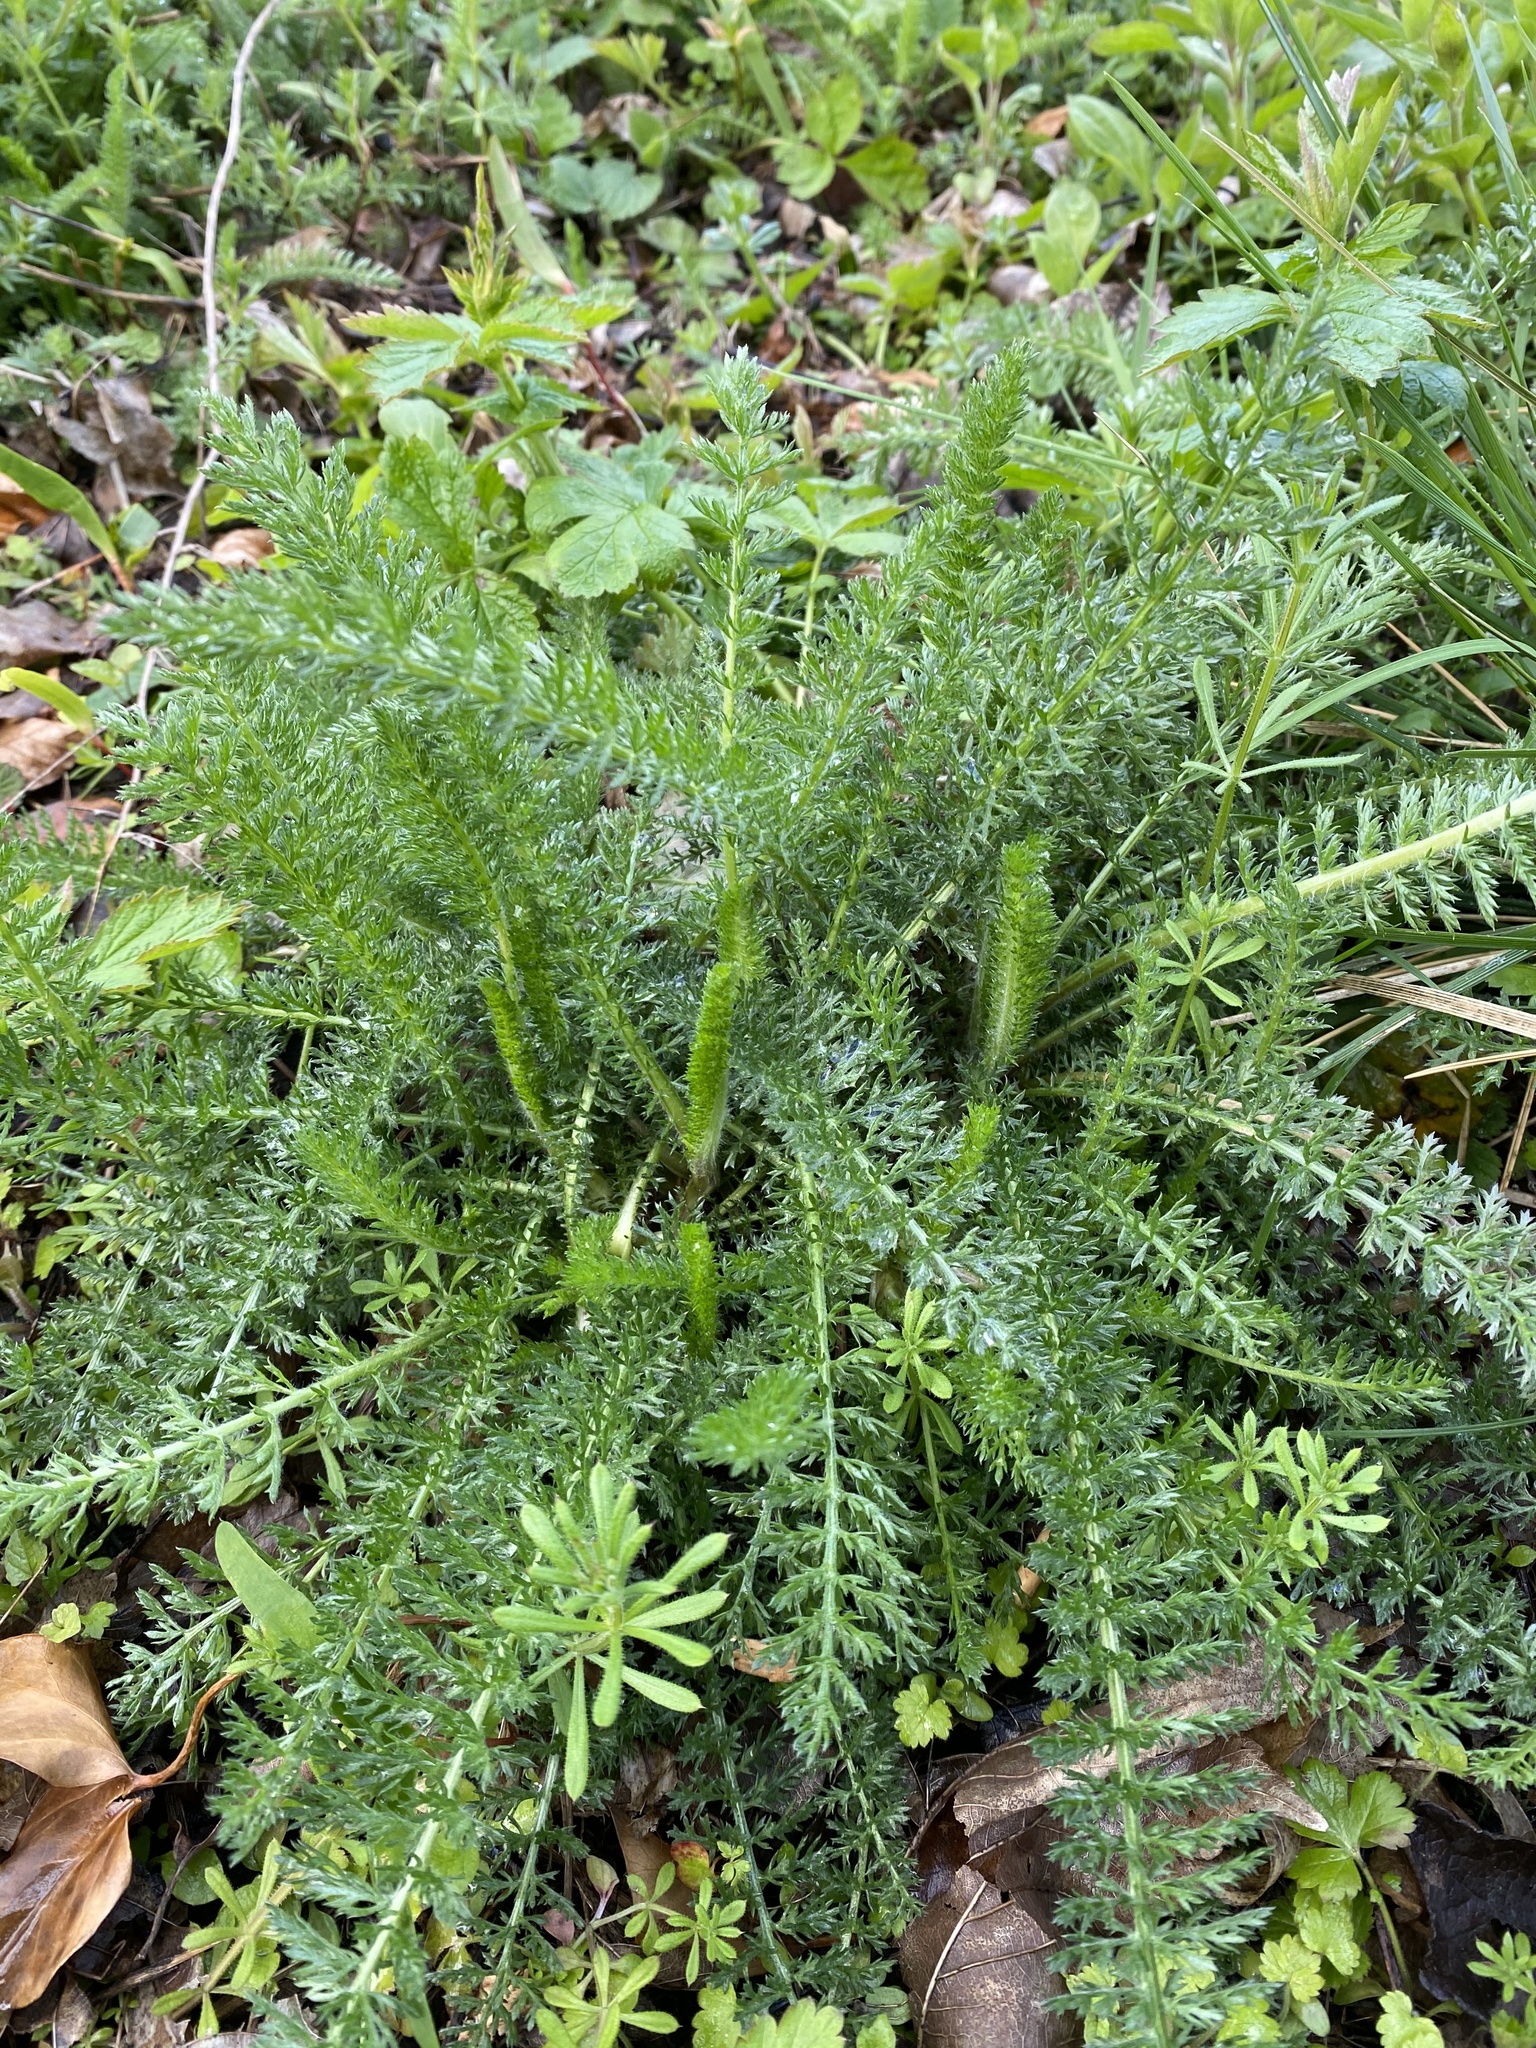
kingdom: Plantae
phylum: Tracheophyta
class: Magnoliopsida
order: Asterales
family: Asteraceae
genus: Achillea
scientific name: Achillea millefolium
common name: Yarrow
